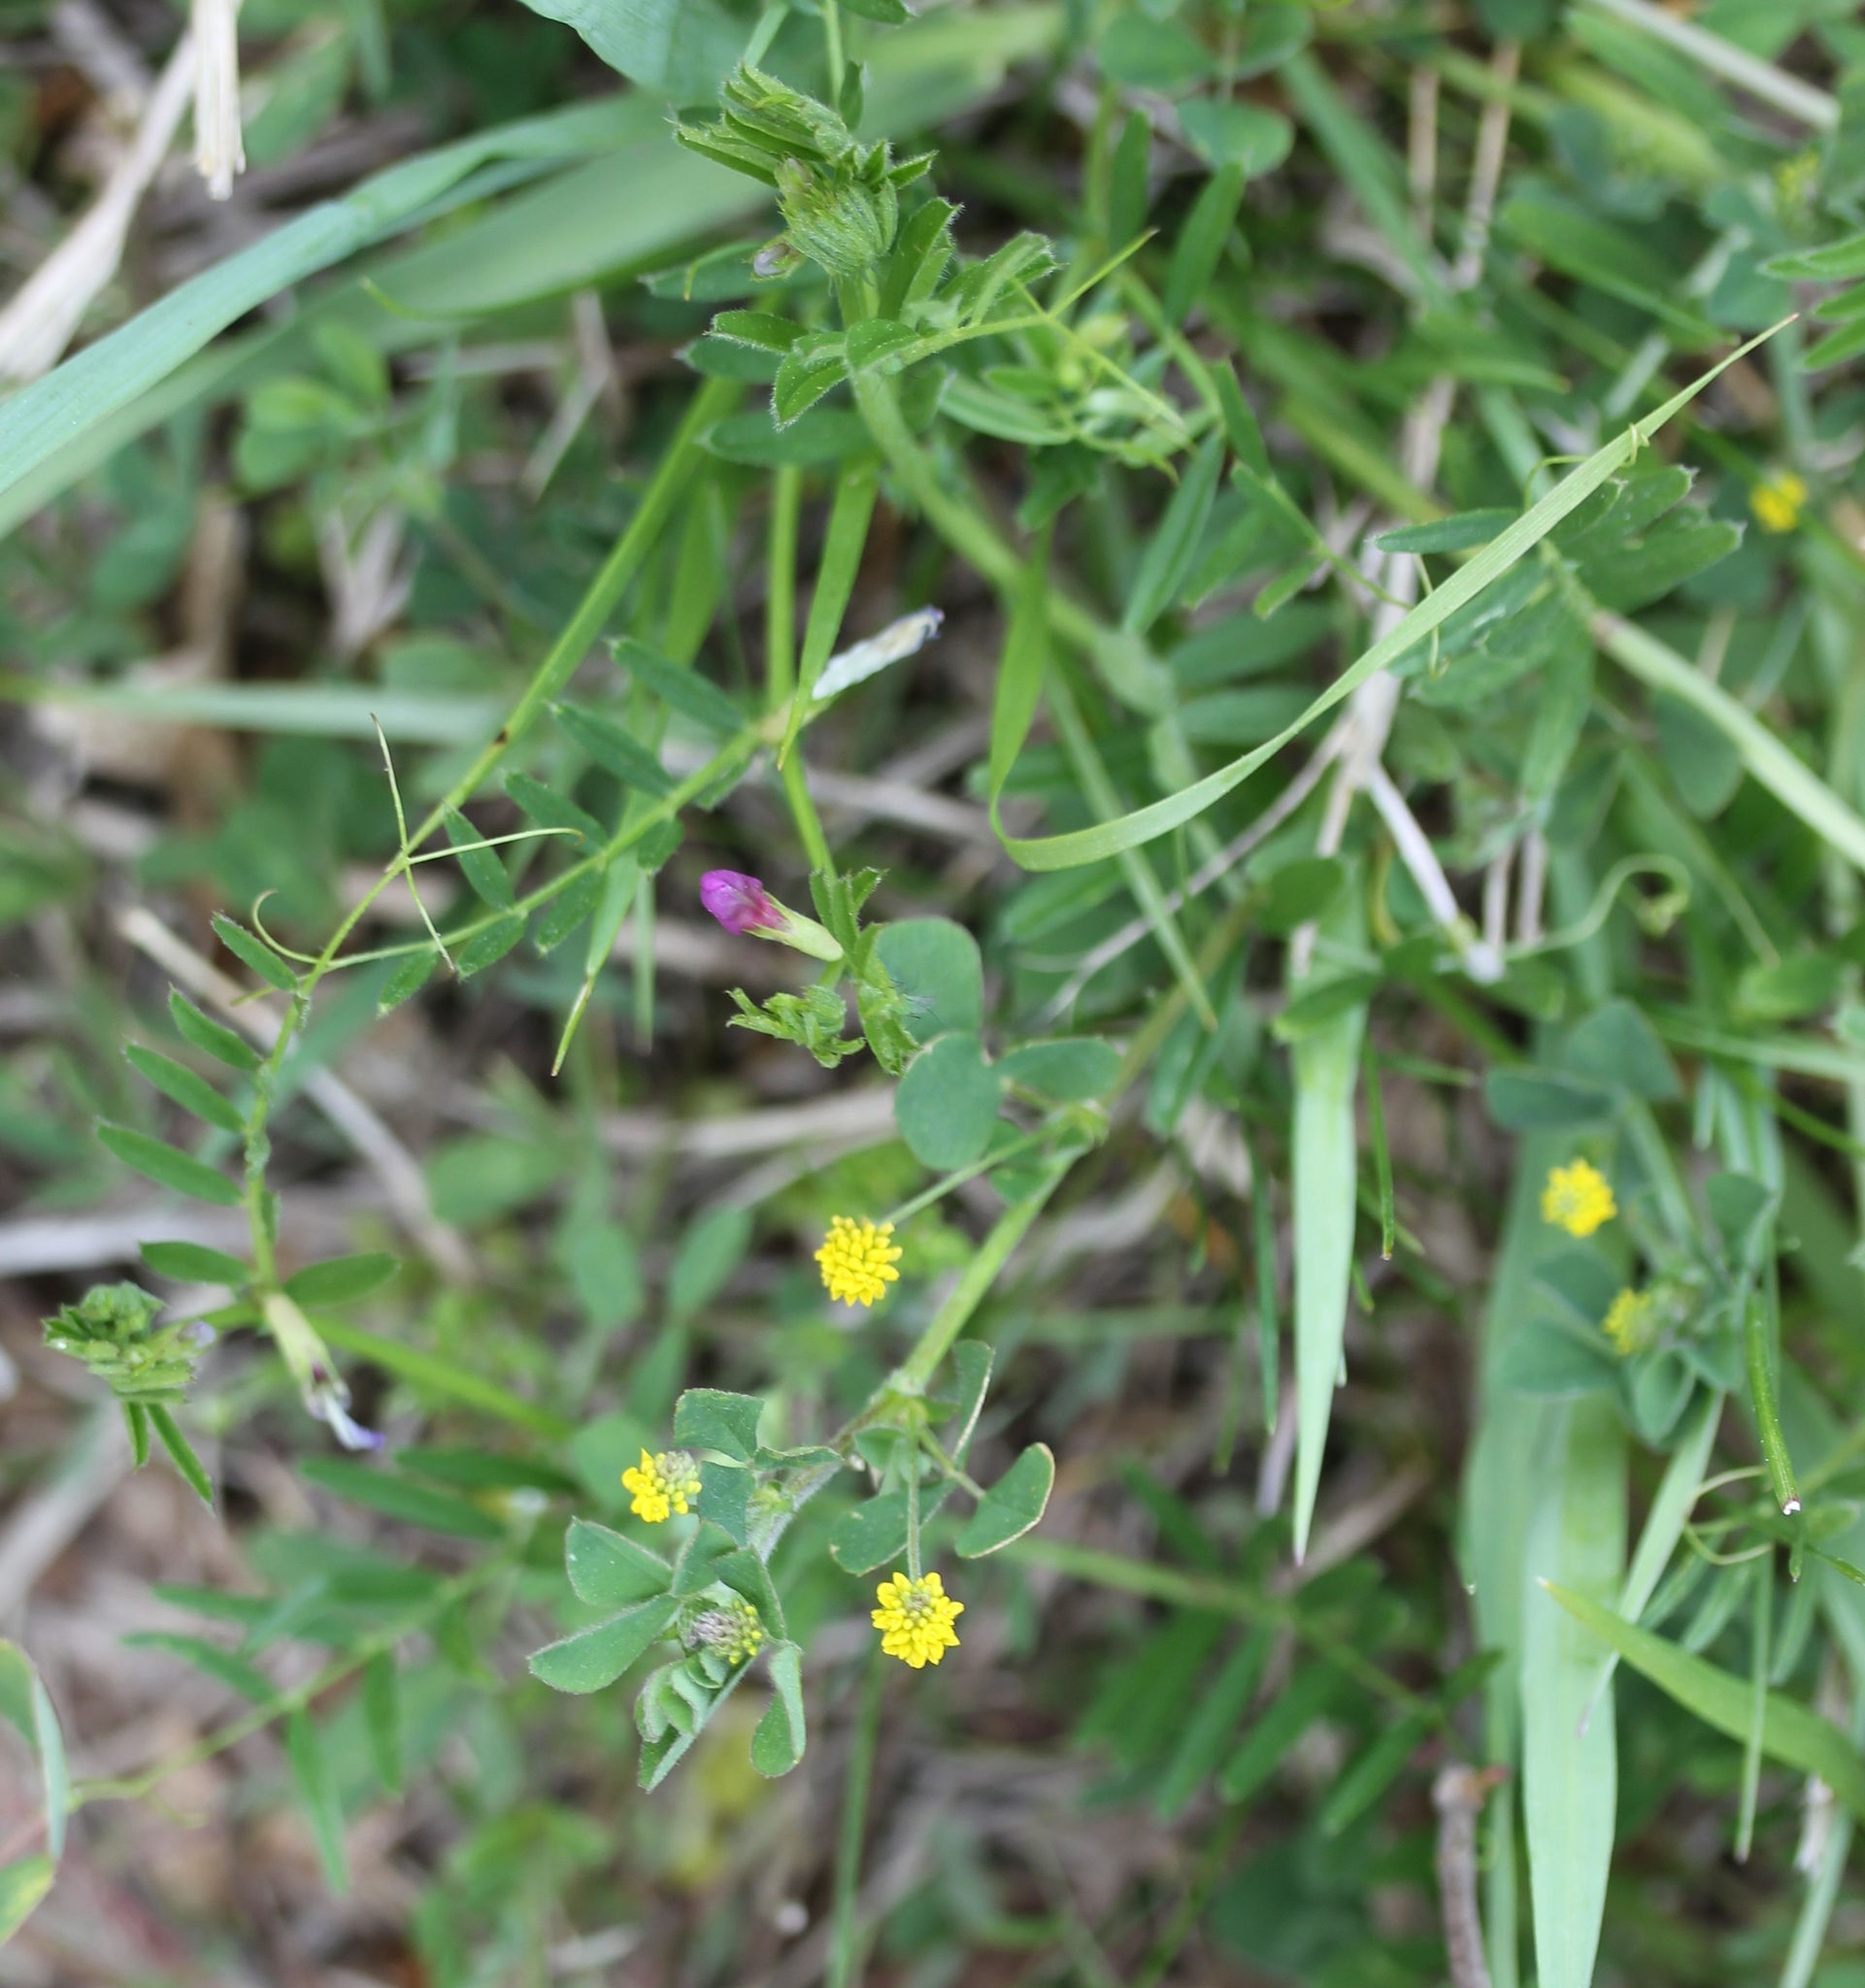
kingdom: Plantae
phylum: Tracheophyta
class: Magnoliopsida
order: Fabales
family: Fabaceae
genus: Medicago
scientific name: Medicago lupulina
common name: Black medick
